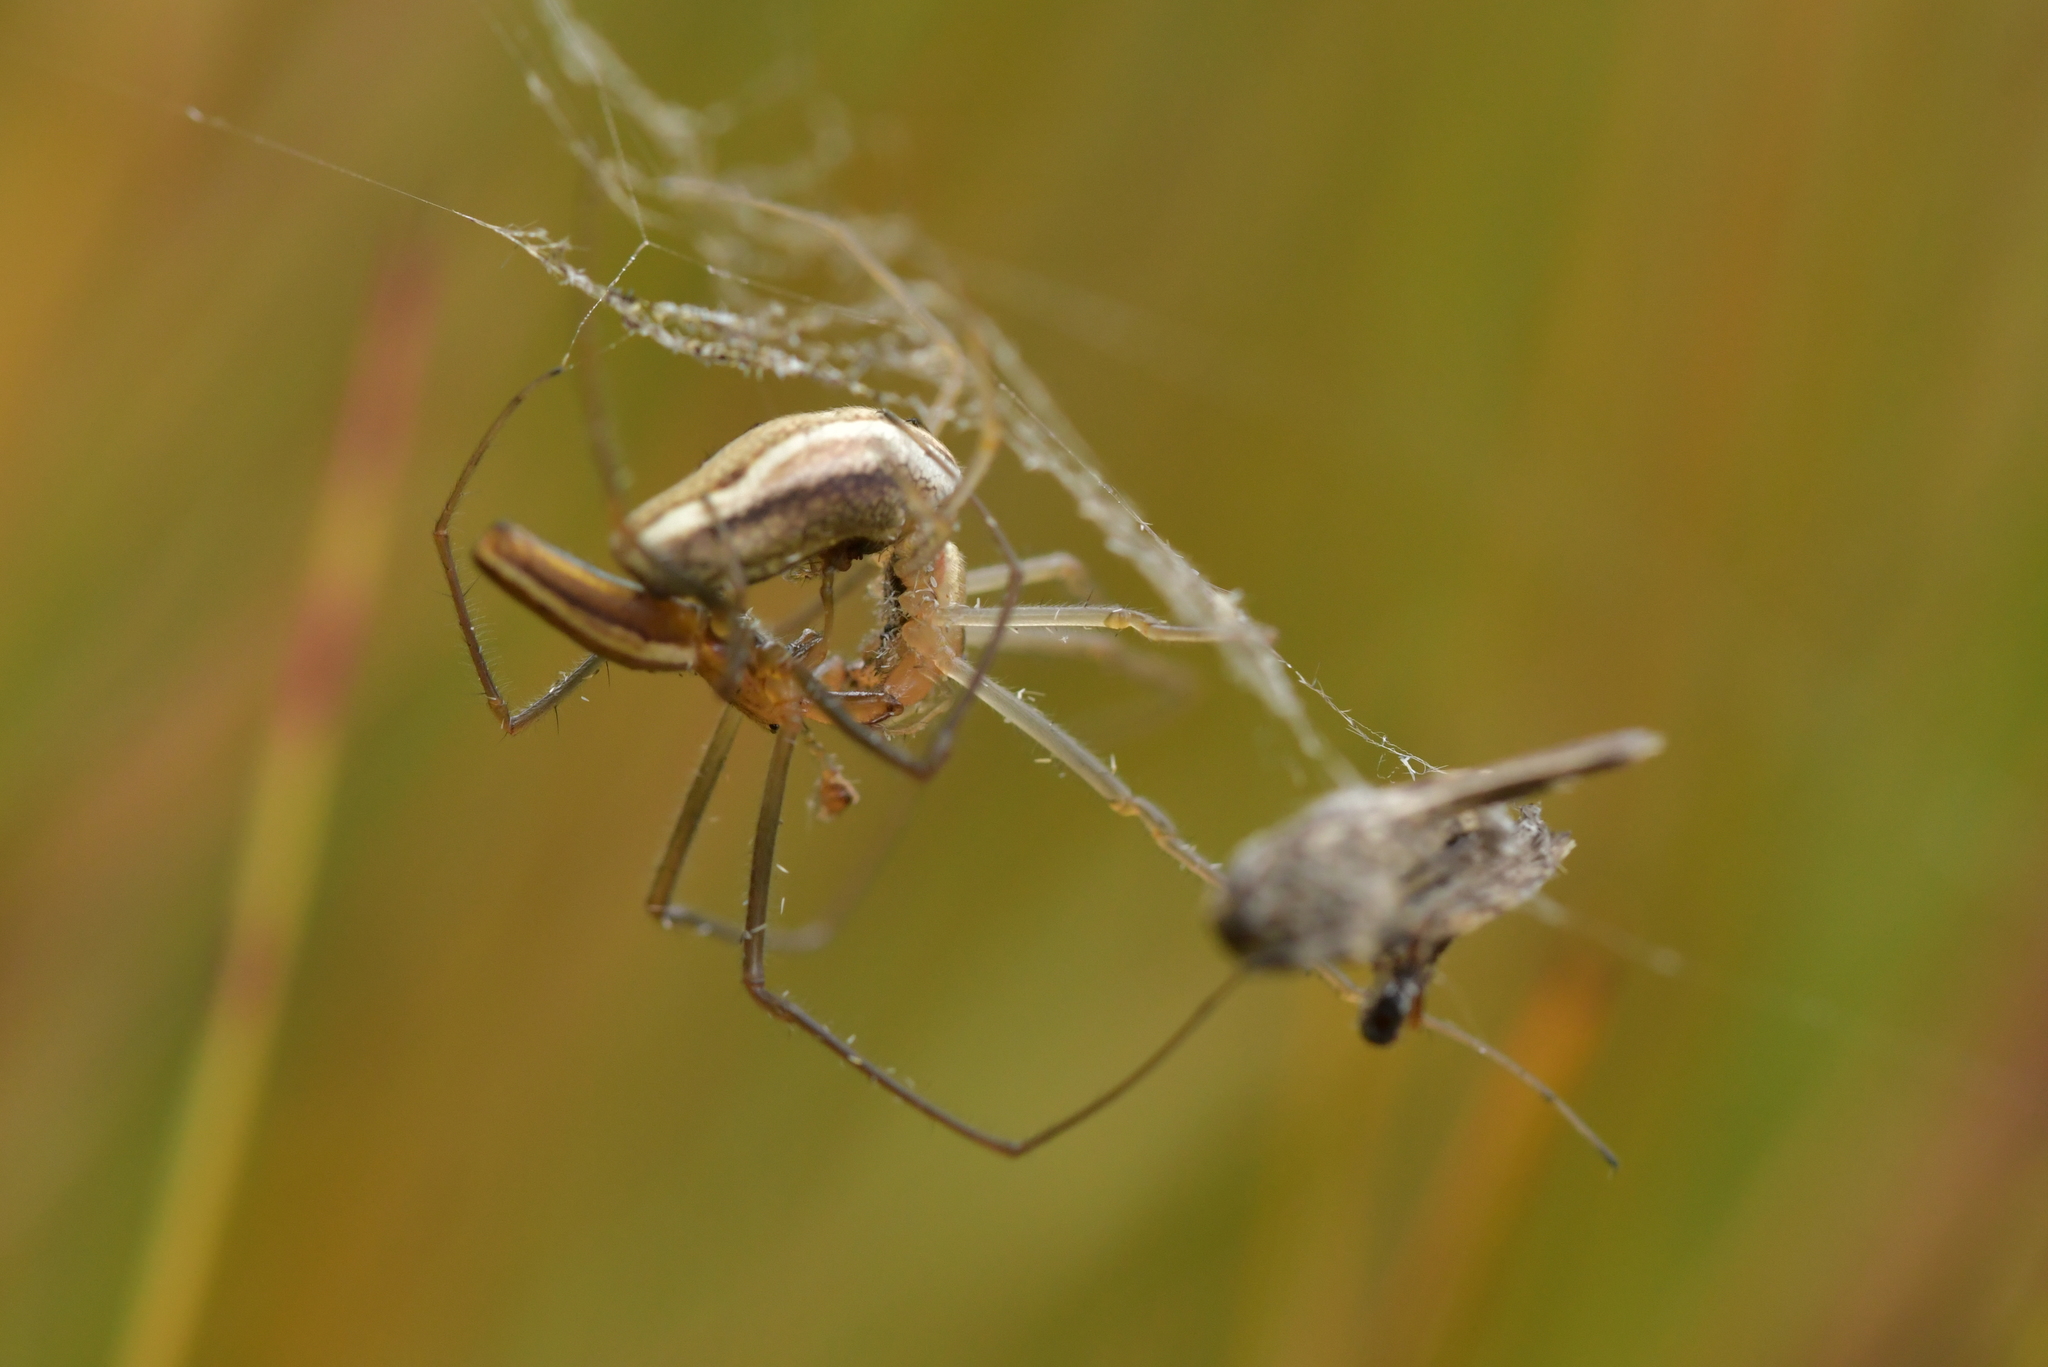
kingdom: Animalia
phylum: Arthropoda
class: Arachnida
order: Araneae
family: Tetragnathidae
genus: Tetragnatha
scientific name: Tetragnatha
